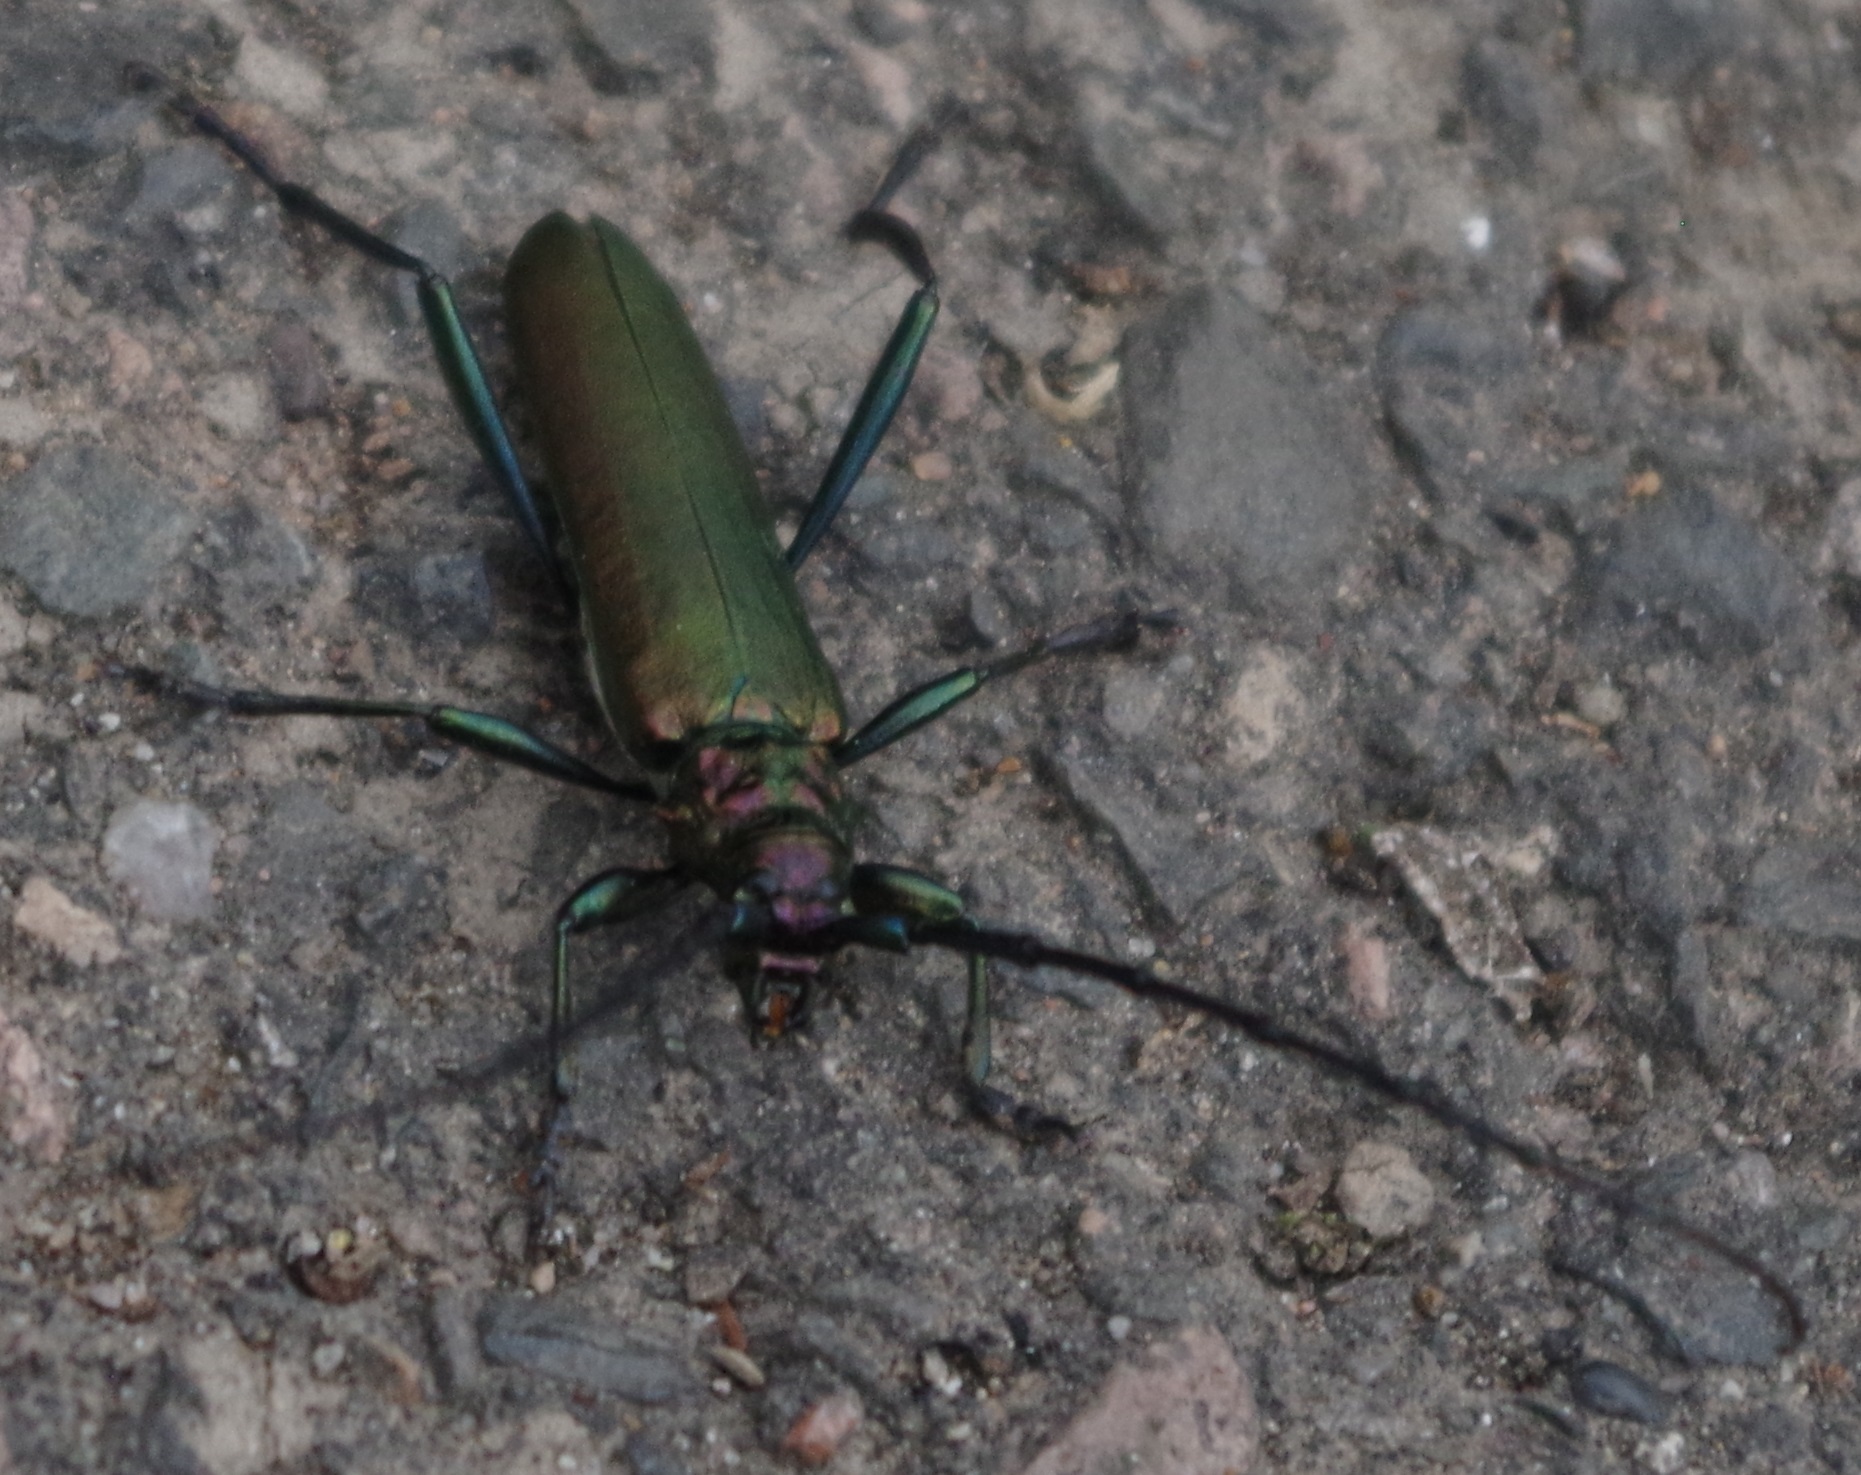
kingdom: Animalia
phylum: Arthropoda
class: Insecta
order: Coleoptera
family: Cerambycidae
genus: Aromia
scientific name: Aromia moschata
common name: Musk beetle
